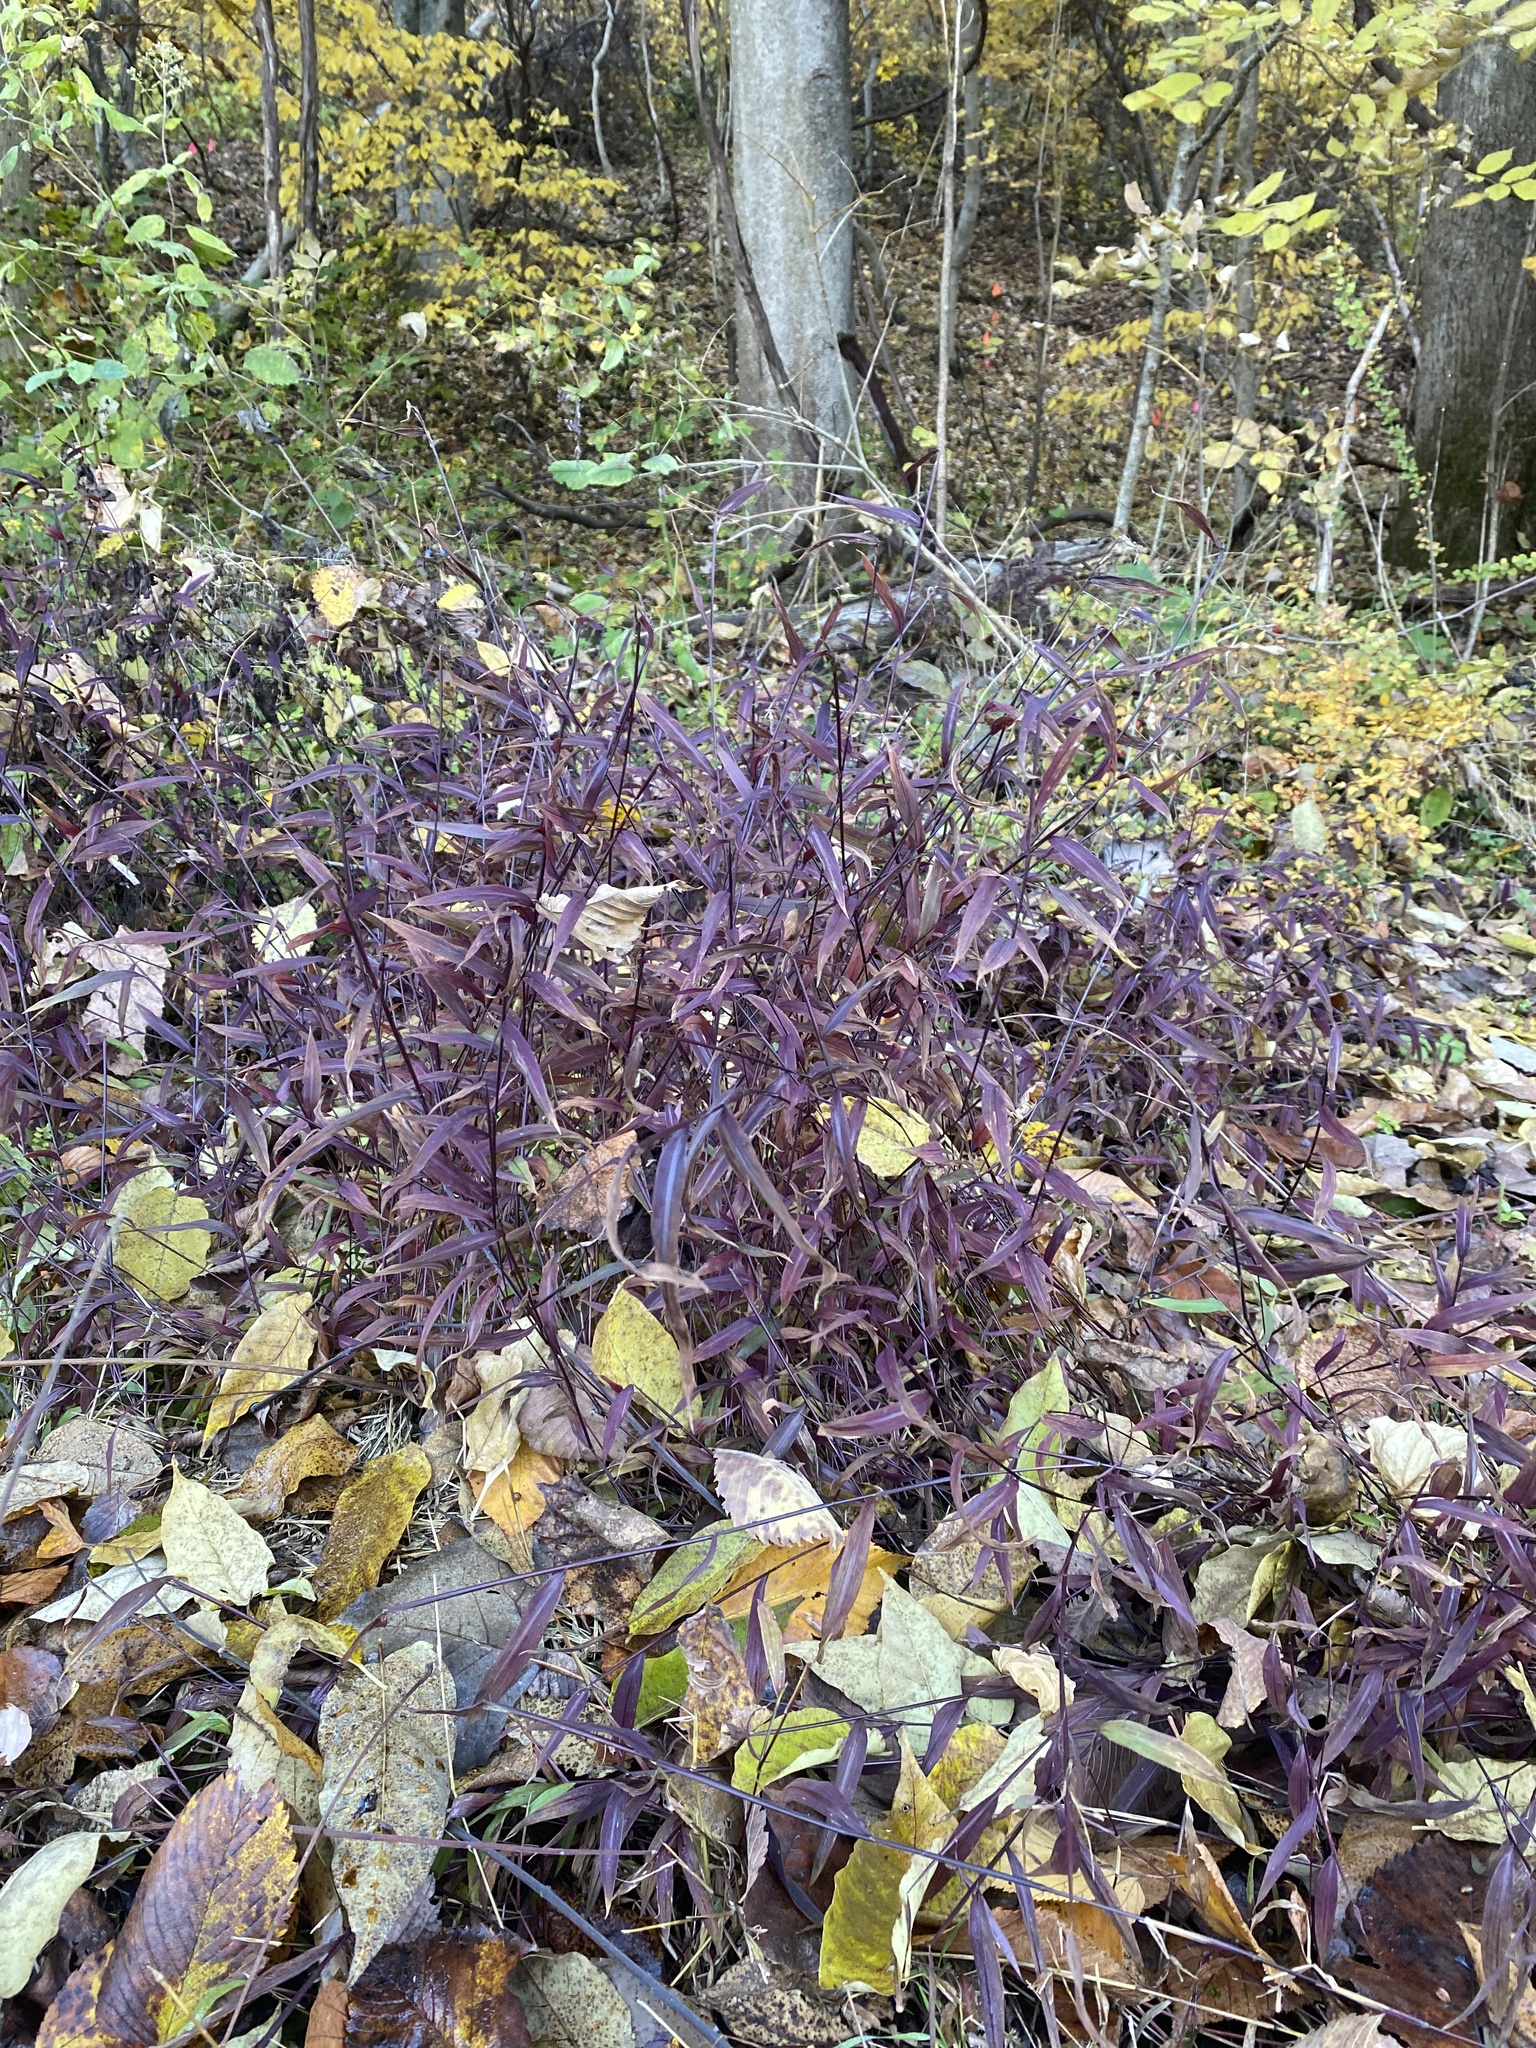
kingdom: Plantae
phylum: Tracheophyta
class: Liliopsida
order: Poales
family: Poaceae
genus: Microstegium
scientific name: Microstegium vimineum
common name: Japanese stiltgrass
